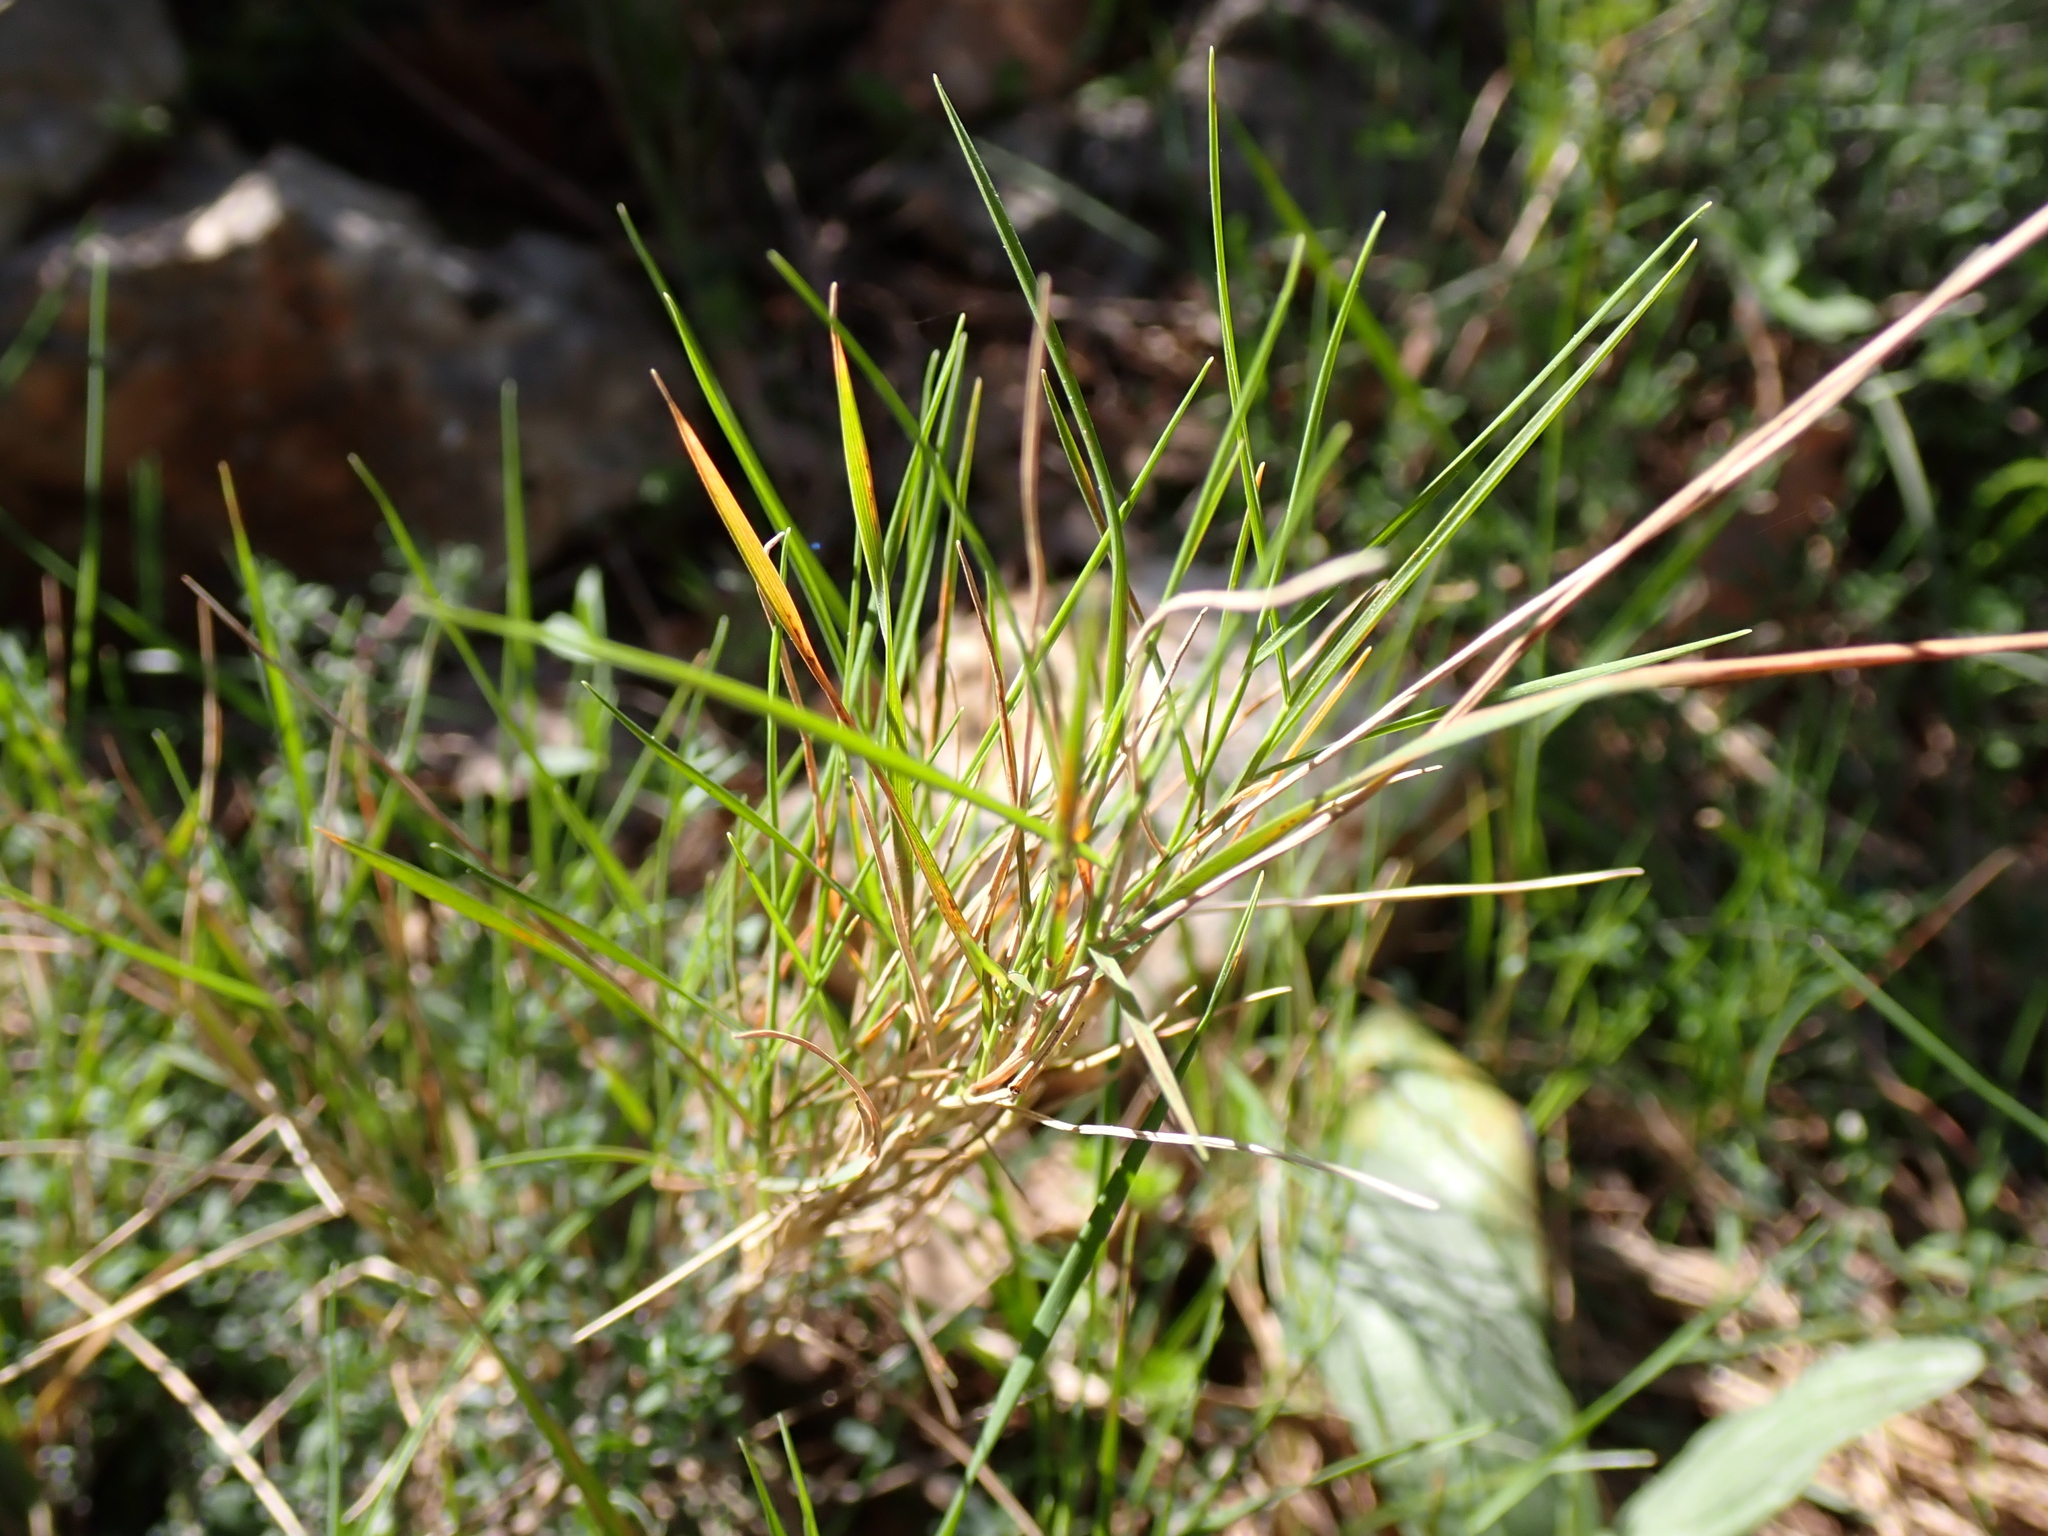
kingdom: Plantae
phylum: Tracheophyta
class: Liliopsida
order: Poales
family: Poaceae
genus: Brachypodium
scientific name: Brachypodium retusum
